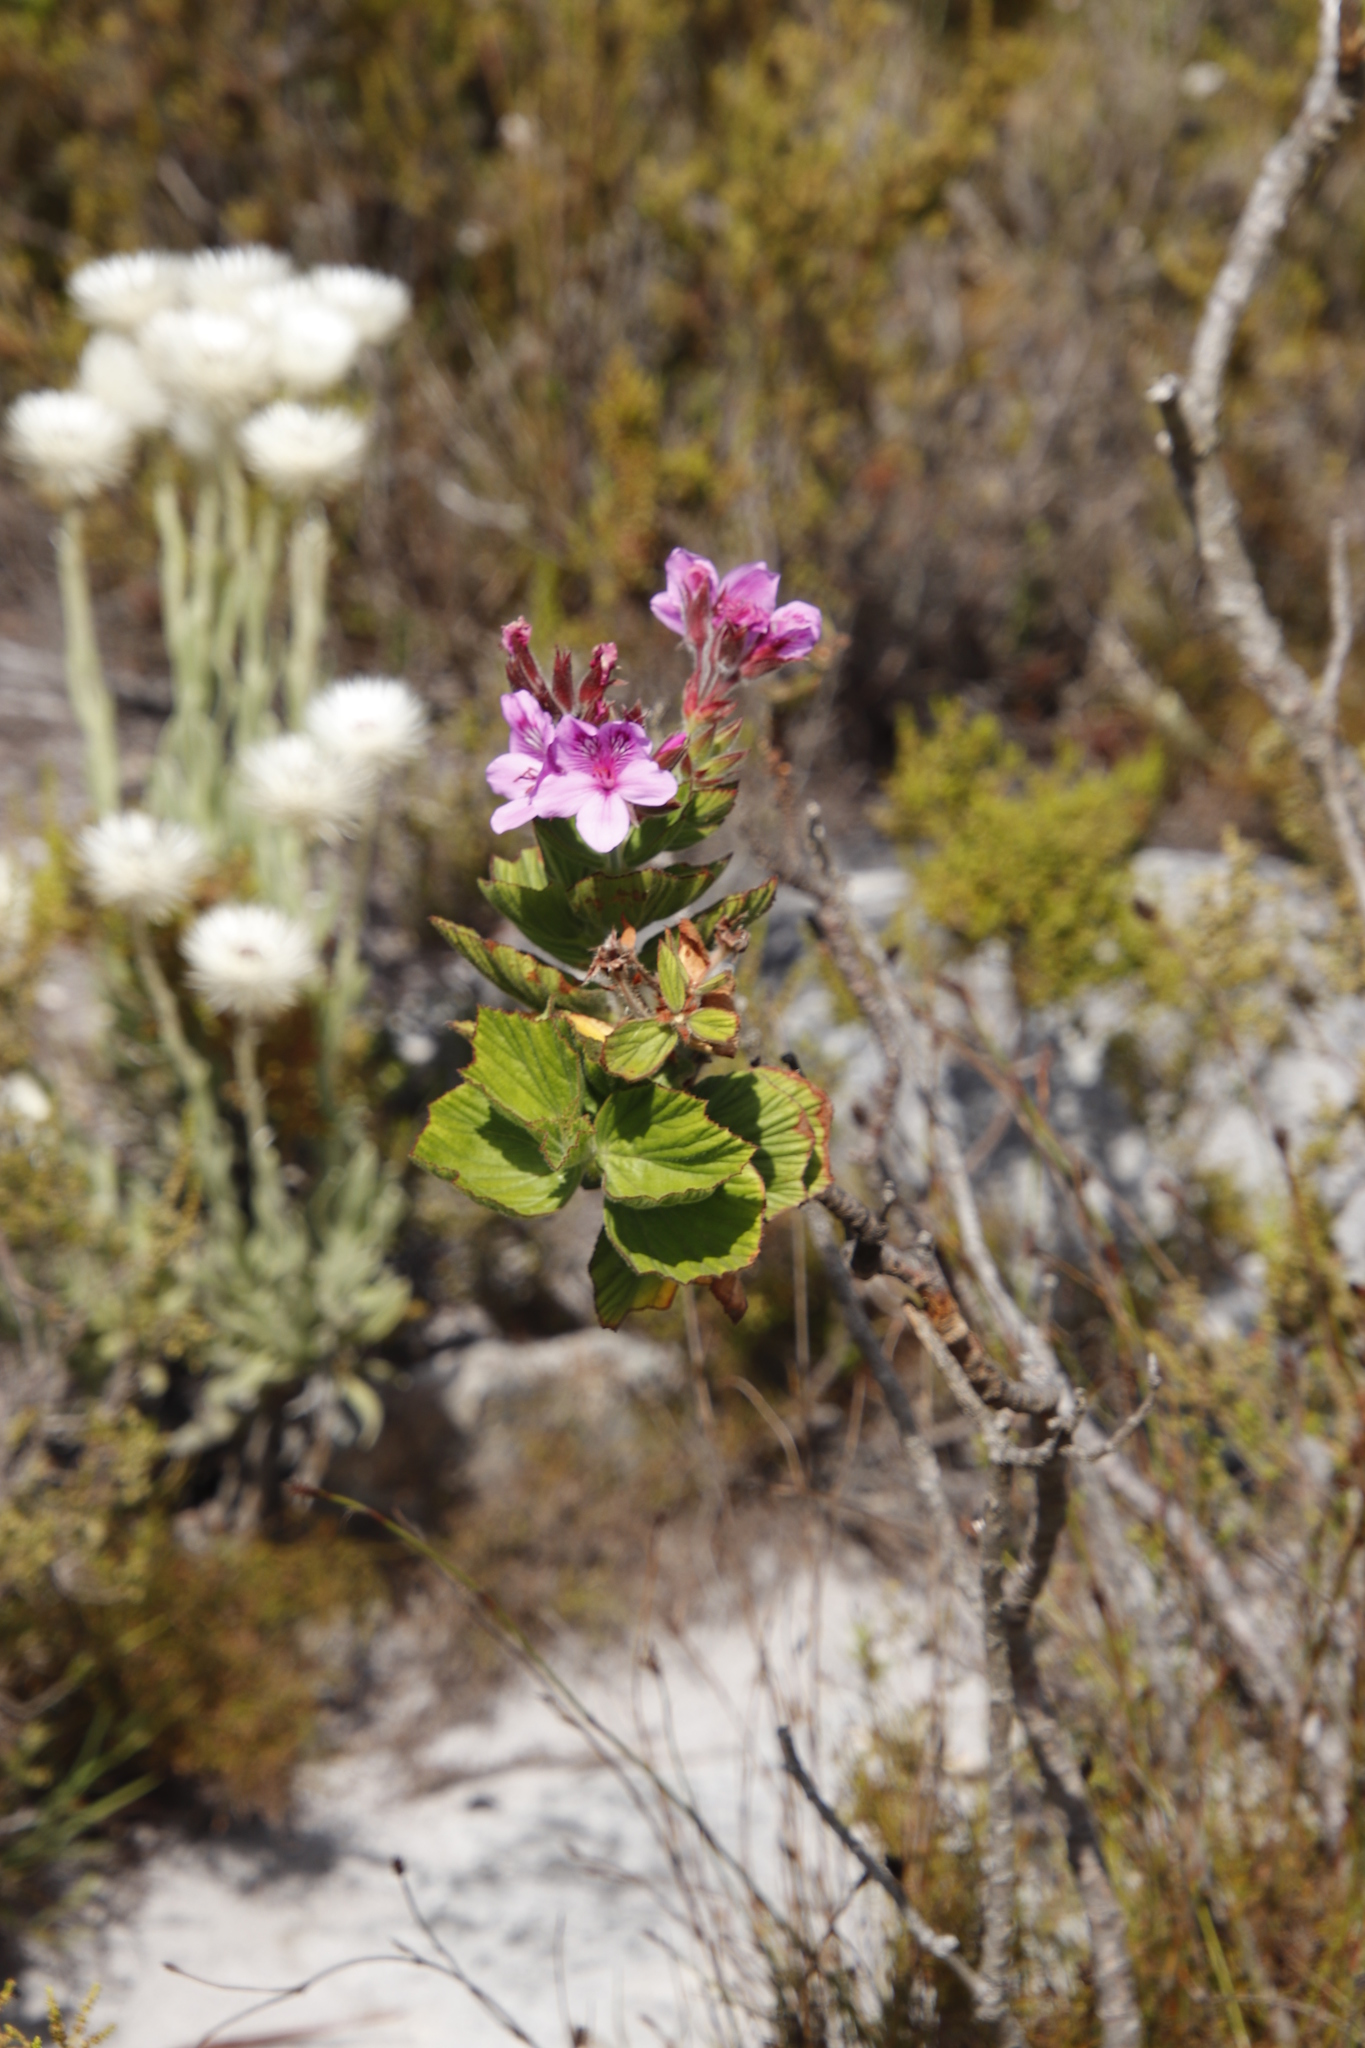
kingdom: Plantae
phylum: Tracheophyta
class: Magnoliopsida
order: Geraniales
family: Geraniaceae
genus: Pelargonium
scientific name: Pelargonium cucullatum
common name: Tree pelargonium
